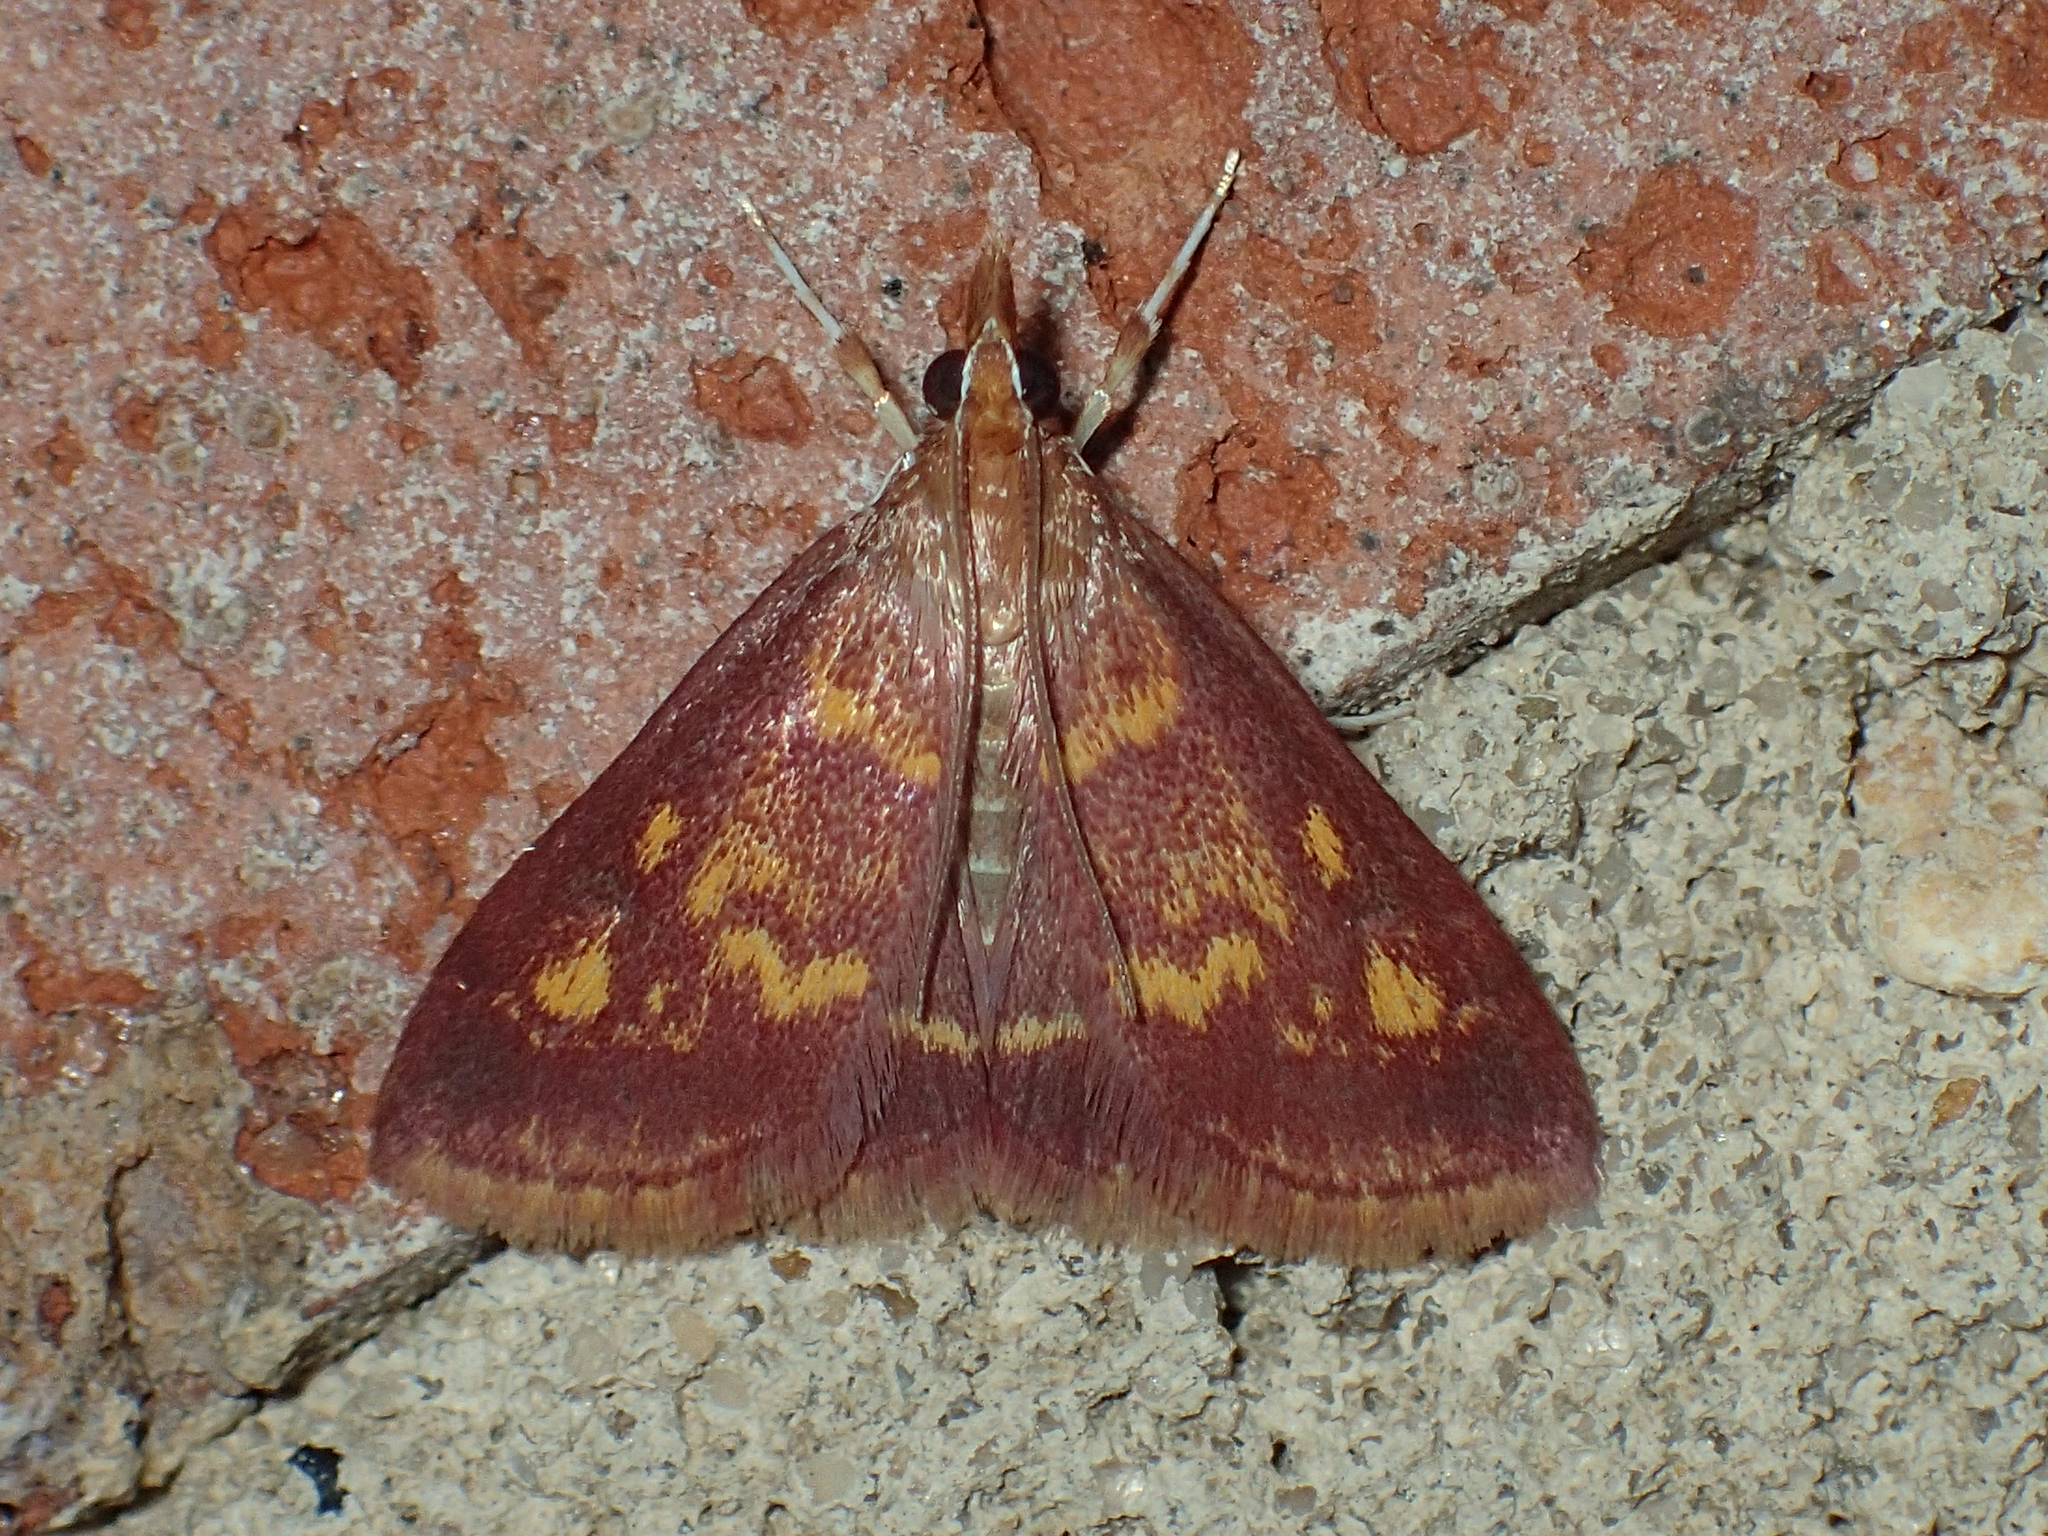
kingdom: Animalia
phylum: Arthropoda
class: Insecta
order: Lepidoptera
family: Crambidae
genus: Pyrausta
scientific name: Pyrausta acrionalis
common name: Mint-loving pyrausta moth
